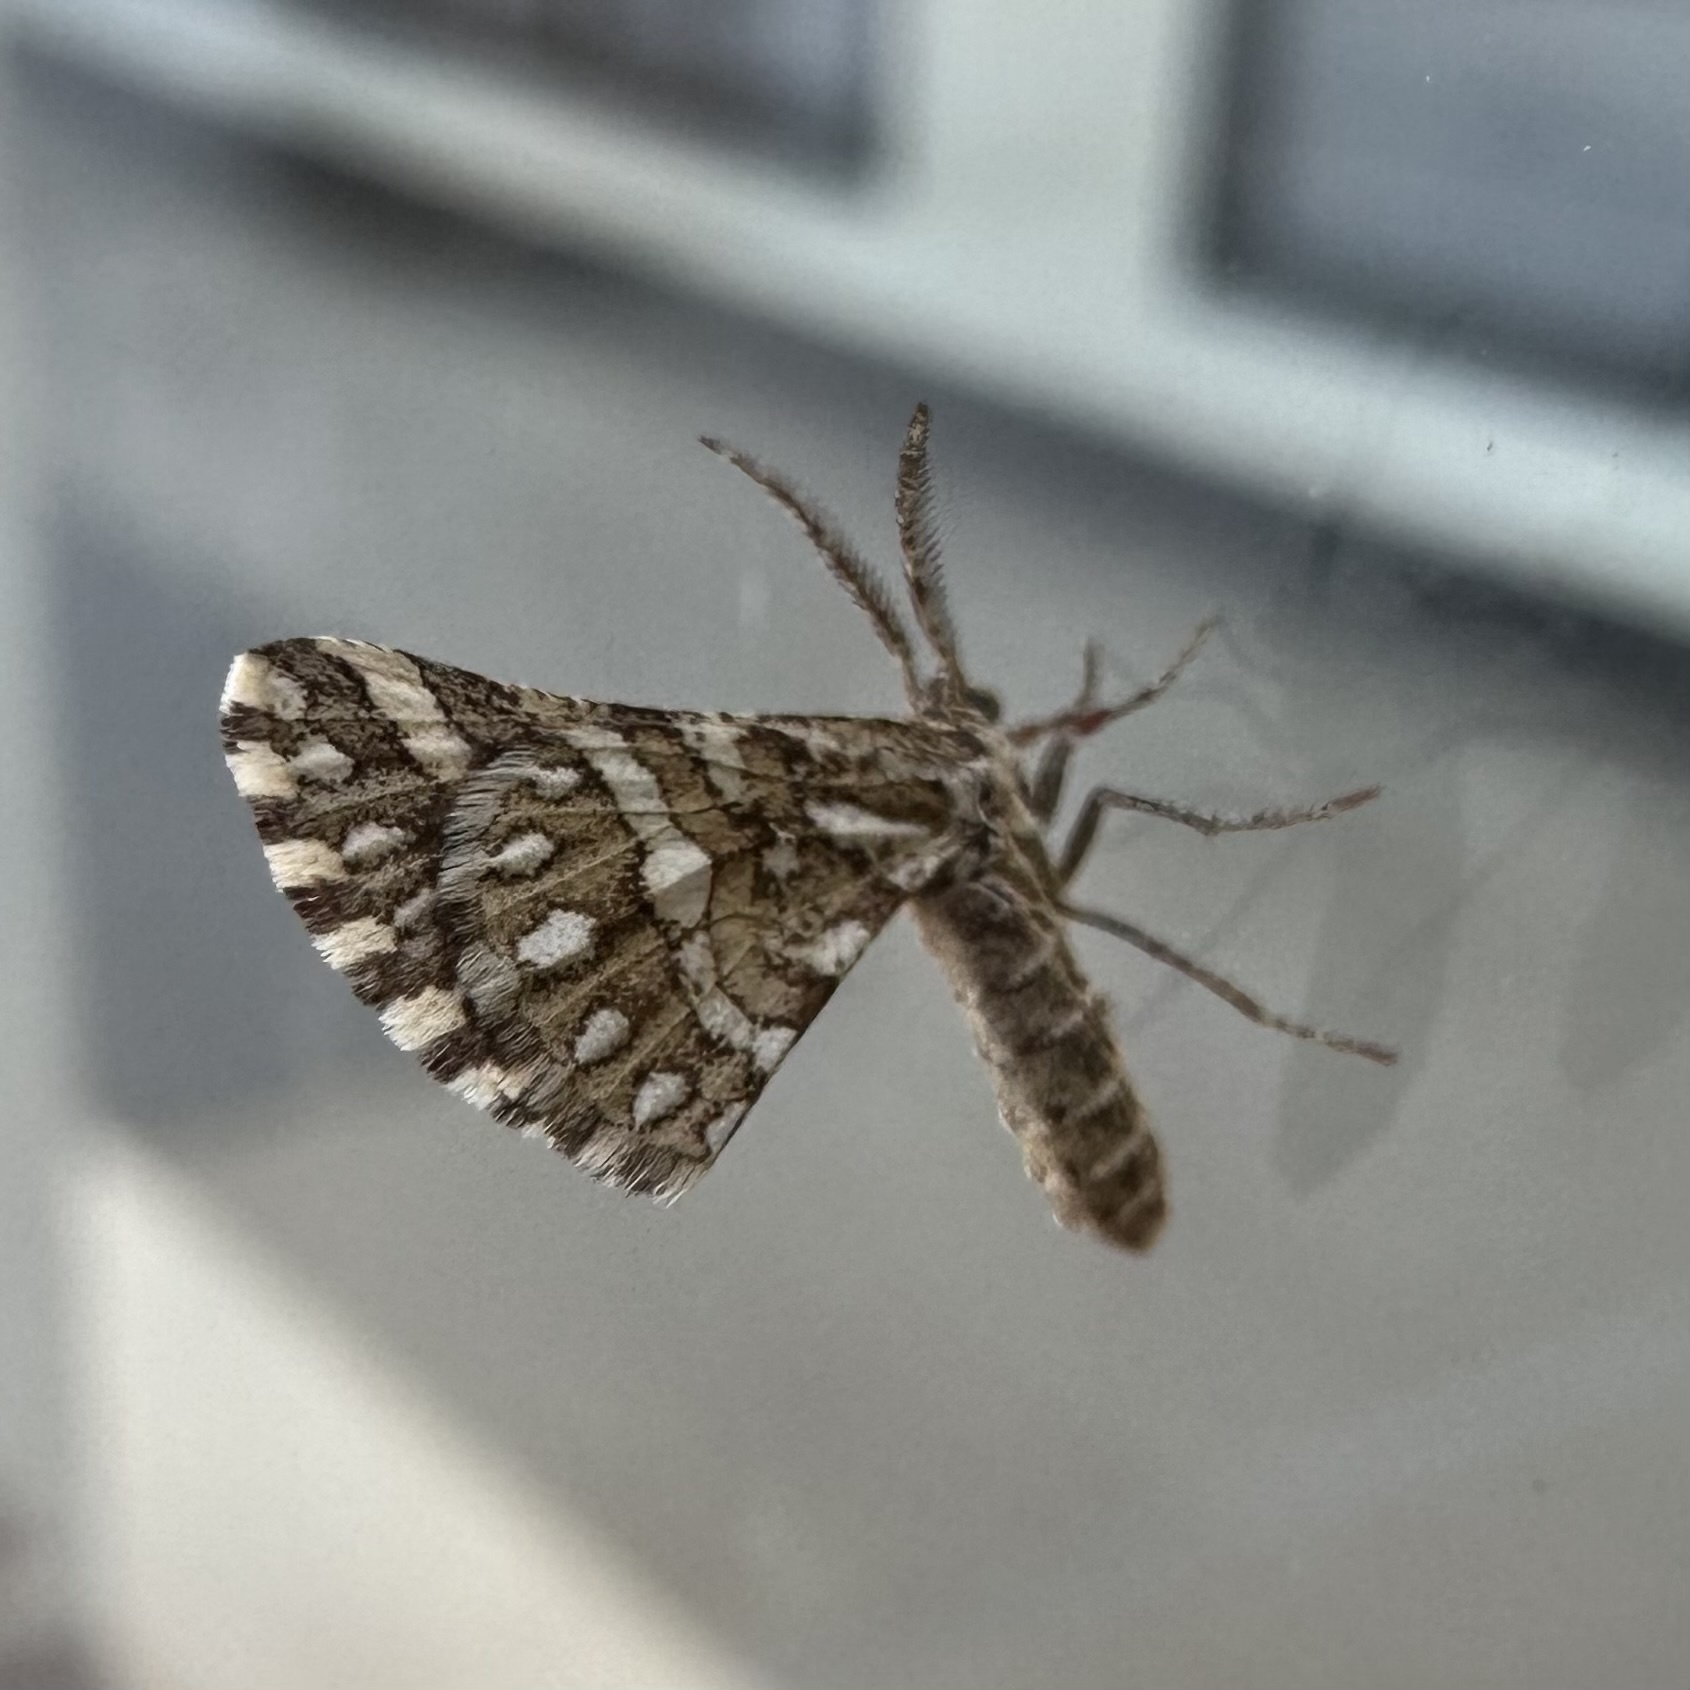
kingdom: Animalia
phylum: Arthropoda
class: Insecta
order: Lepidoptera
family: Geometridae
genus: Narraga
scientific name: Narraga fimetaria
